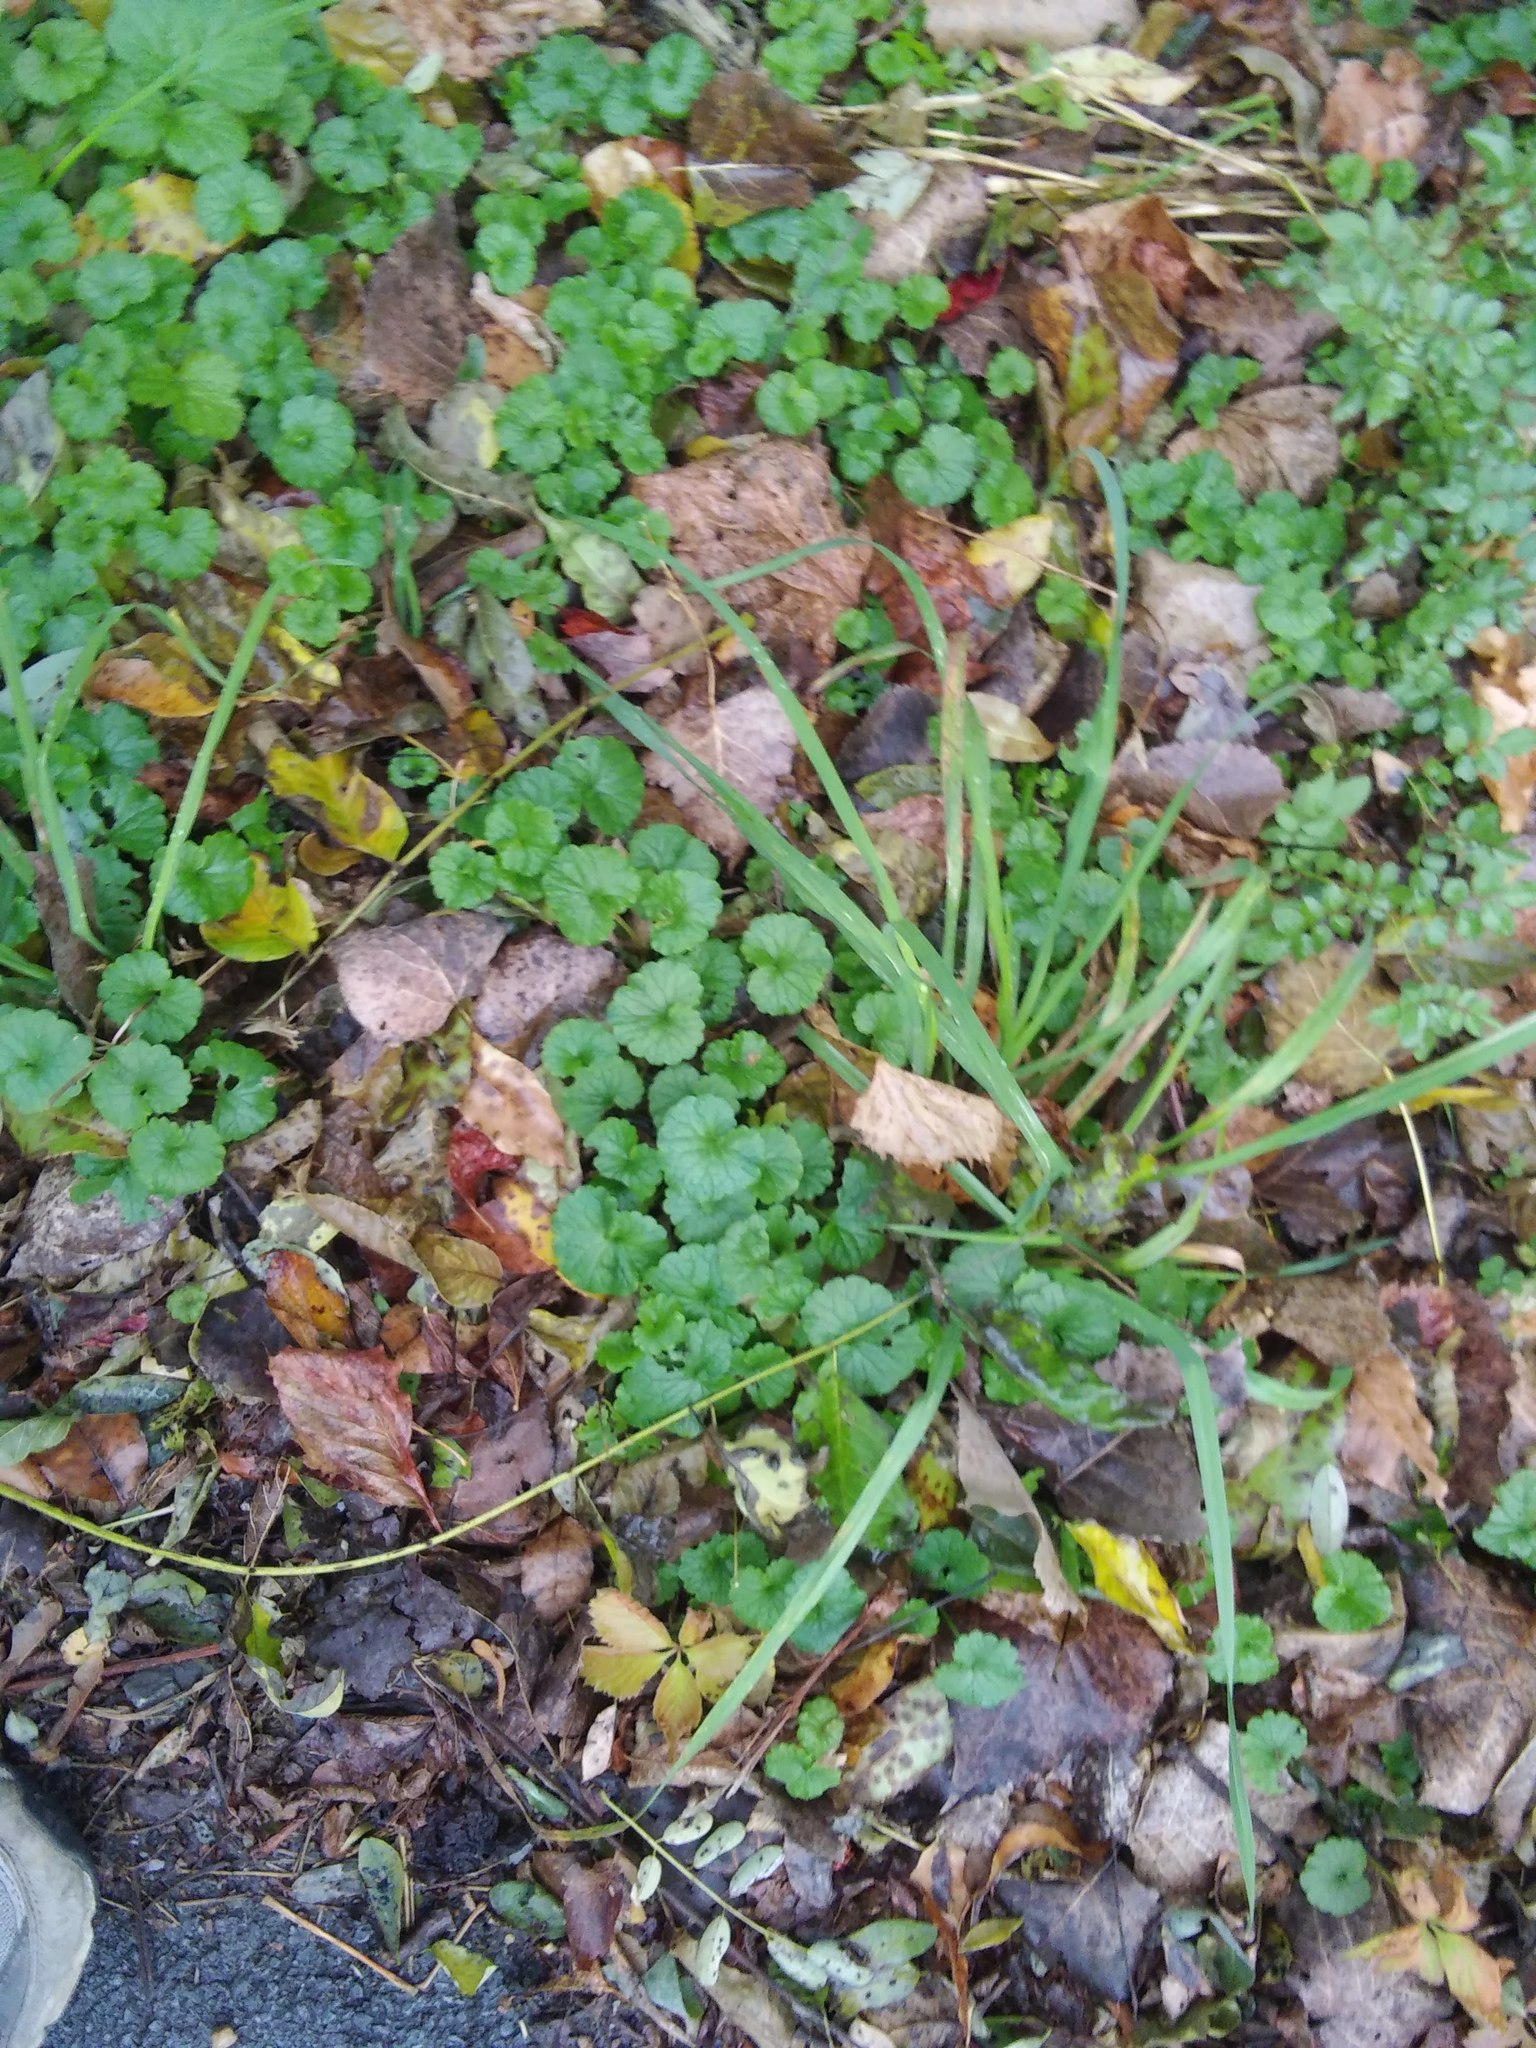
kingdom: Plantae
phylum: Tracheophyta
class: Magnoliopsida
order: Lamiales
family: Lamiaceae
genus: Glechoma
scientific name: Glechoma hederacea
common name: Ground ivy
